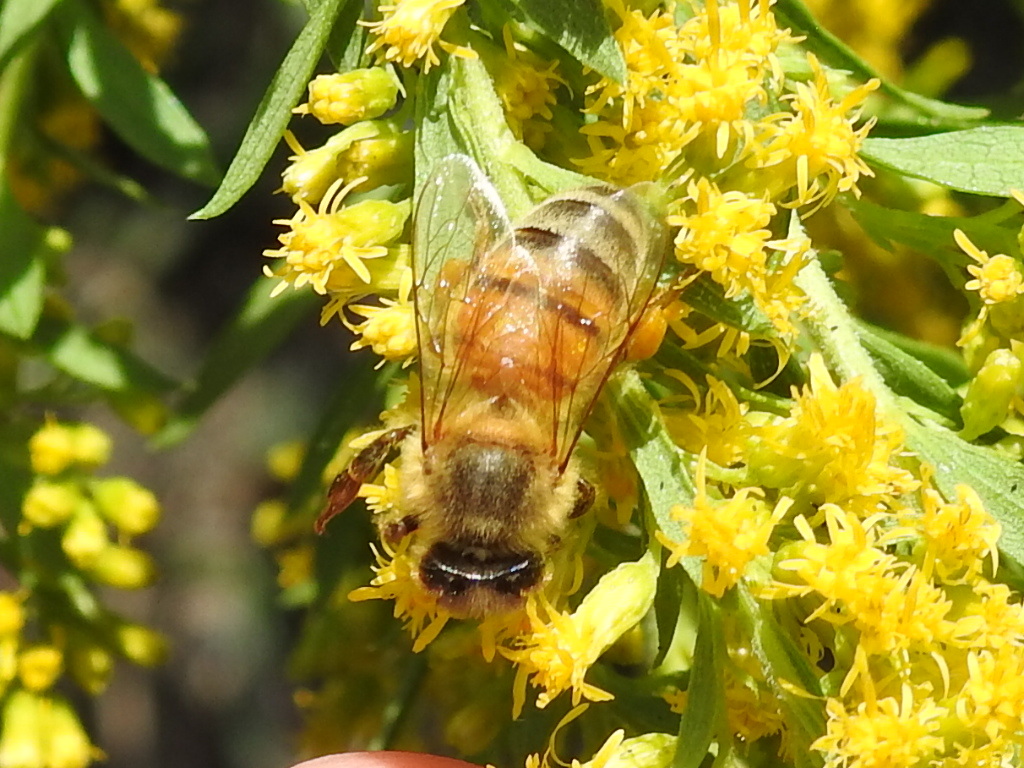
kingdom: Animalia
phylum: Arthropoda
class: Insecta
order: Hymenoptera
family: Apidae
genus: Apis
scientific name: Apis mellifera
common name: Honey bee
